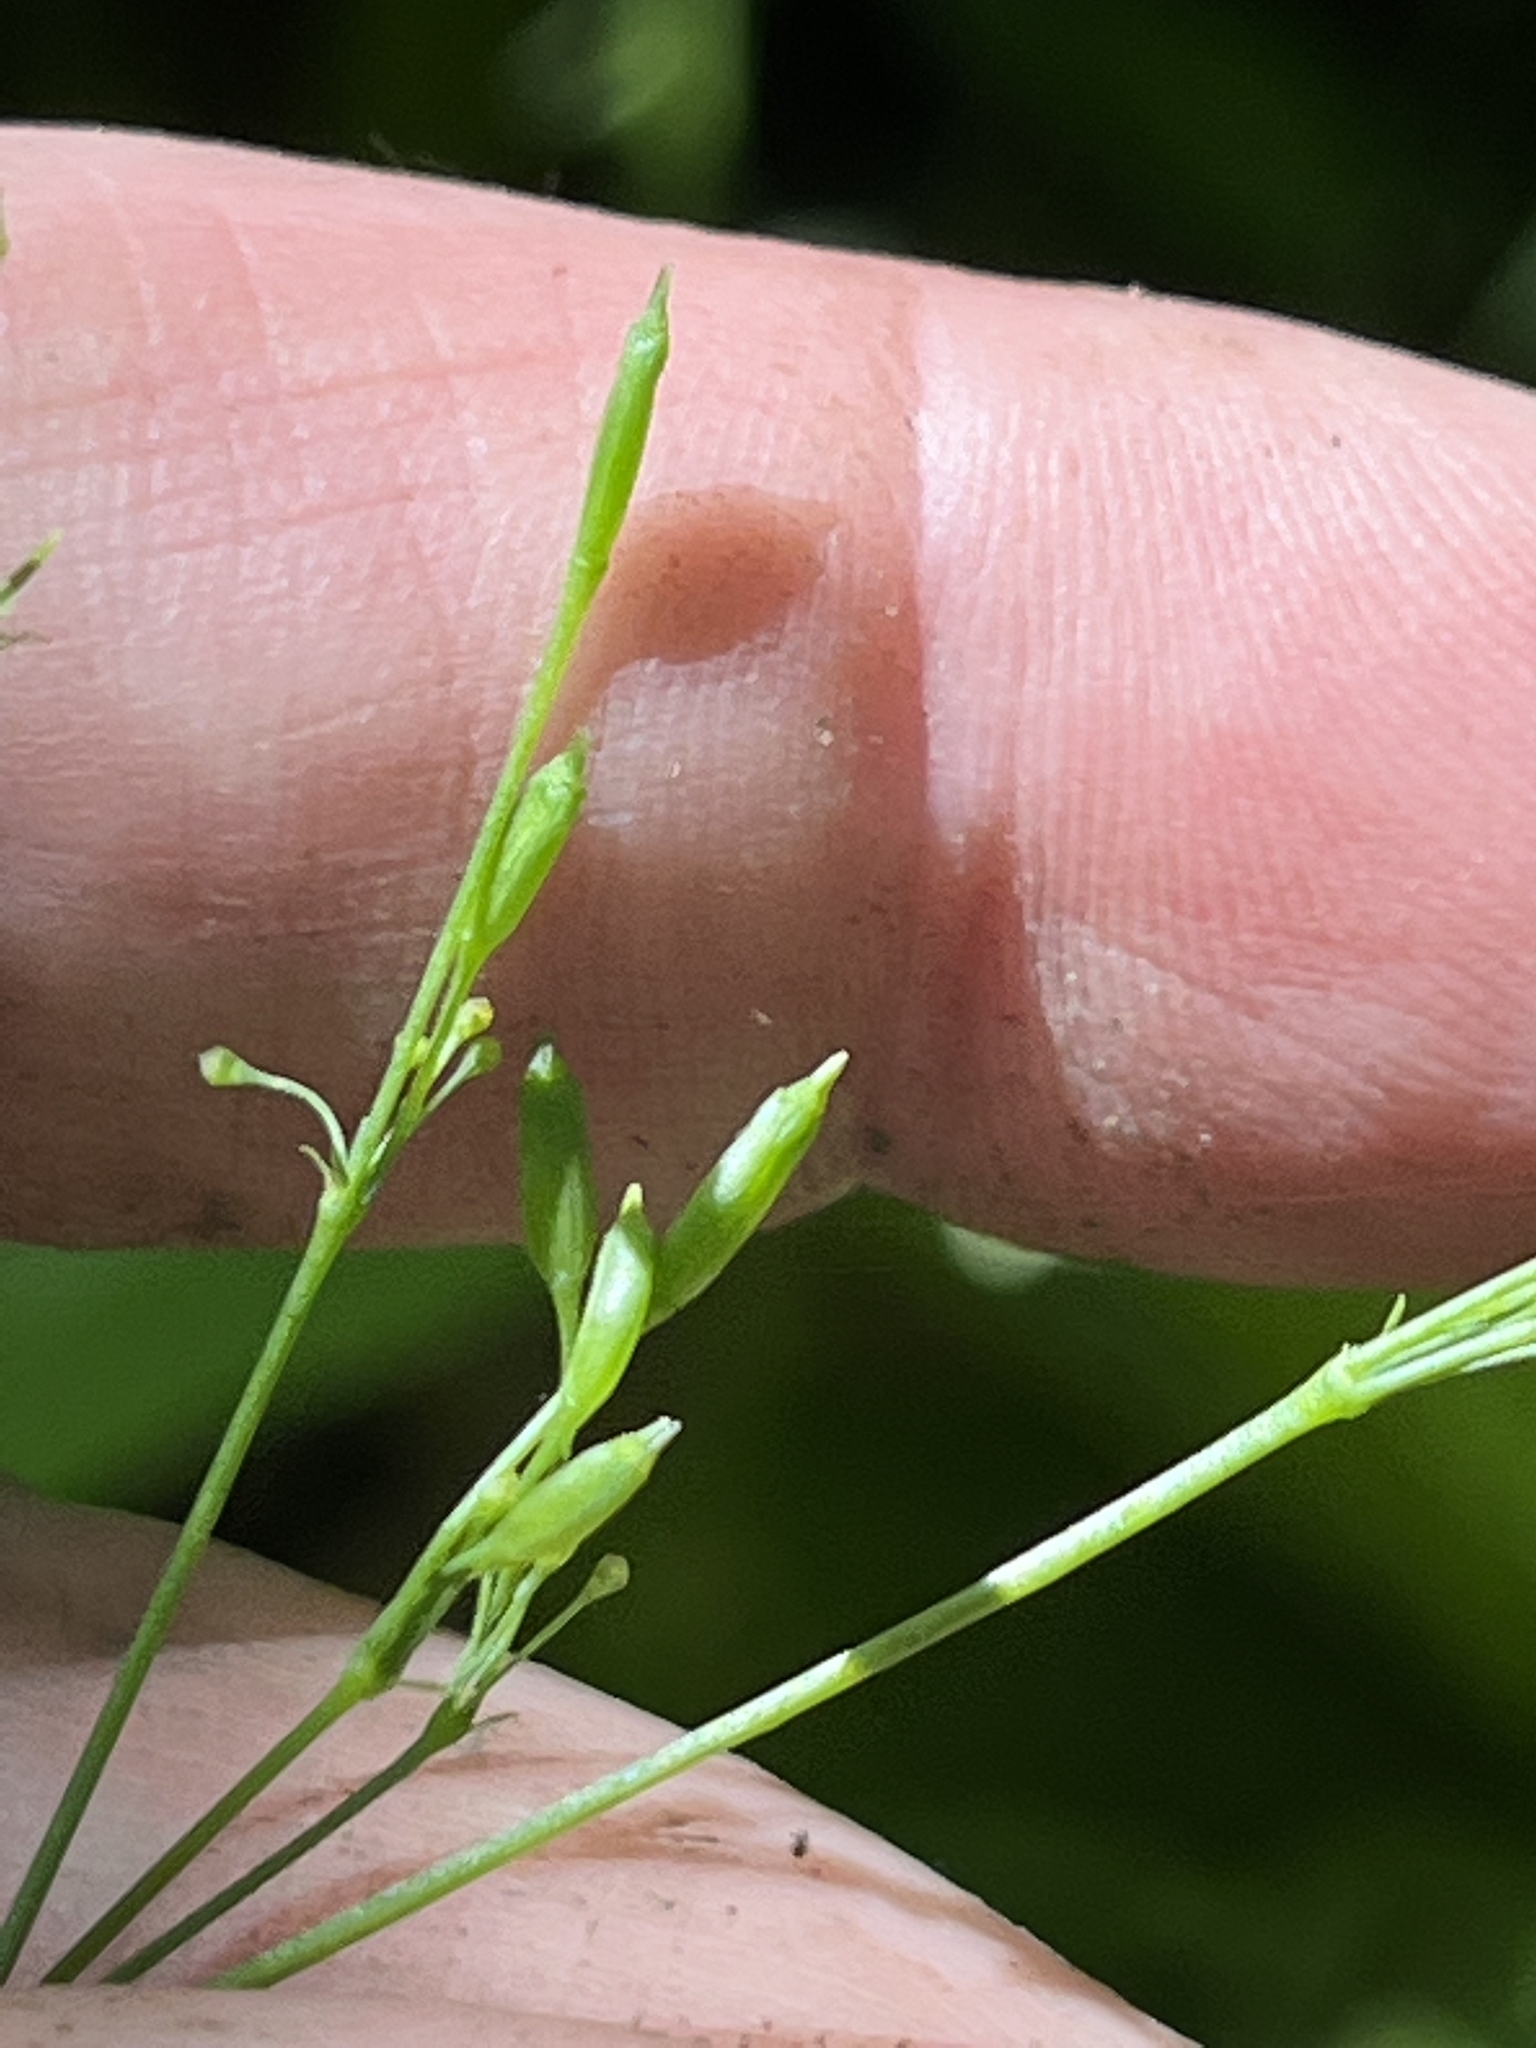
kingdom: Plantae
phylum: Tracheophyta
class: Magnoliopsida
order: Apiales
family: Apiaceae
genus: Cryptotaenia
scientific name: Cryptotaenia canadensis
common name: Honewort
